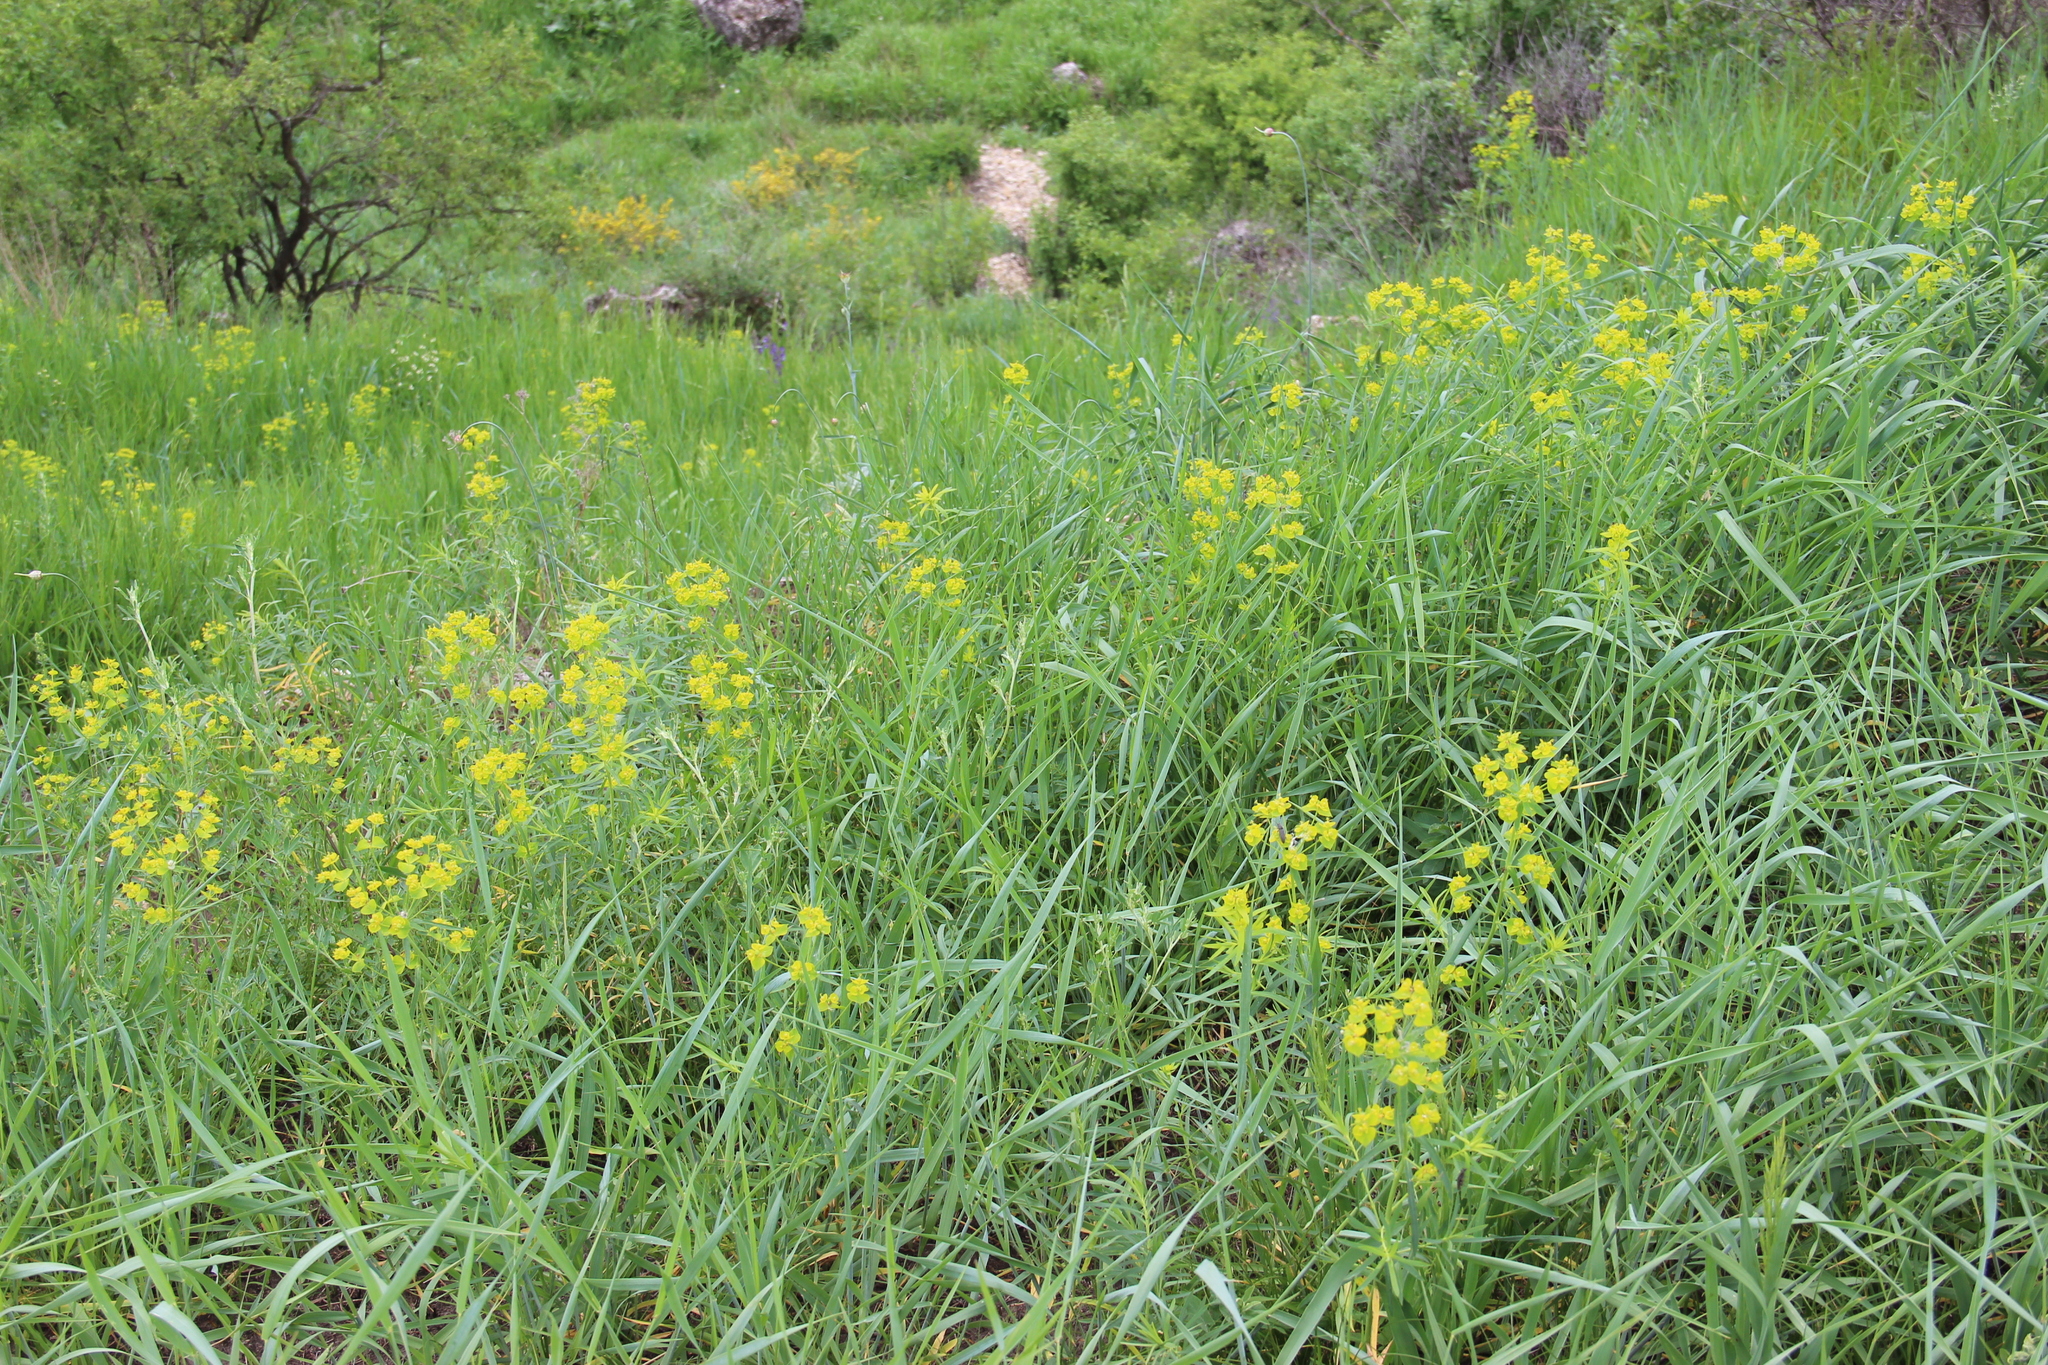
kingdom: Plantae
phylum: Tracheophyta
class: Magnoliopsida
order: Malpighiales
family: Euphorbiaceae
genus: Euphorbia
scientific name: Euphorbia virgata
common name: Leafy spurge
